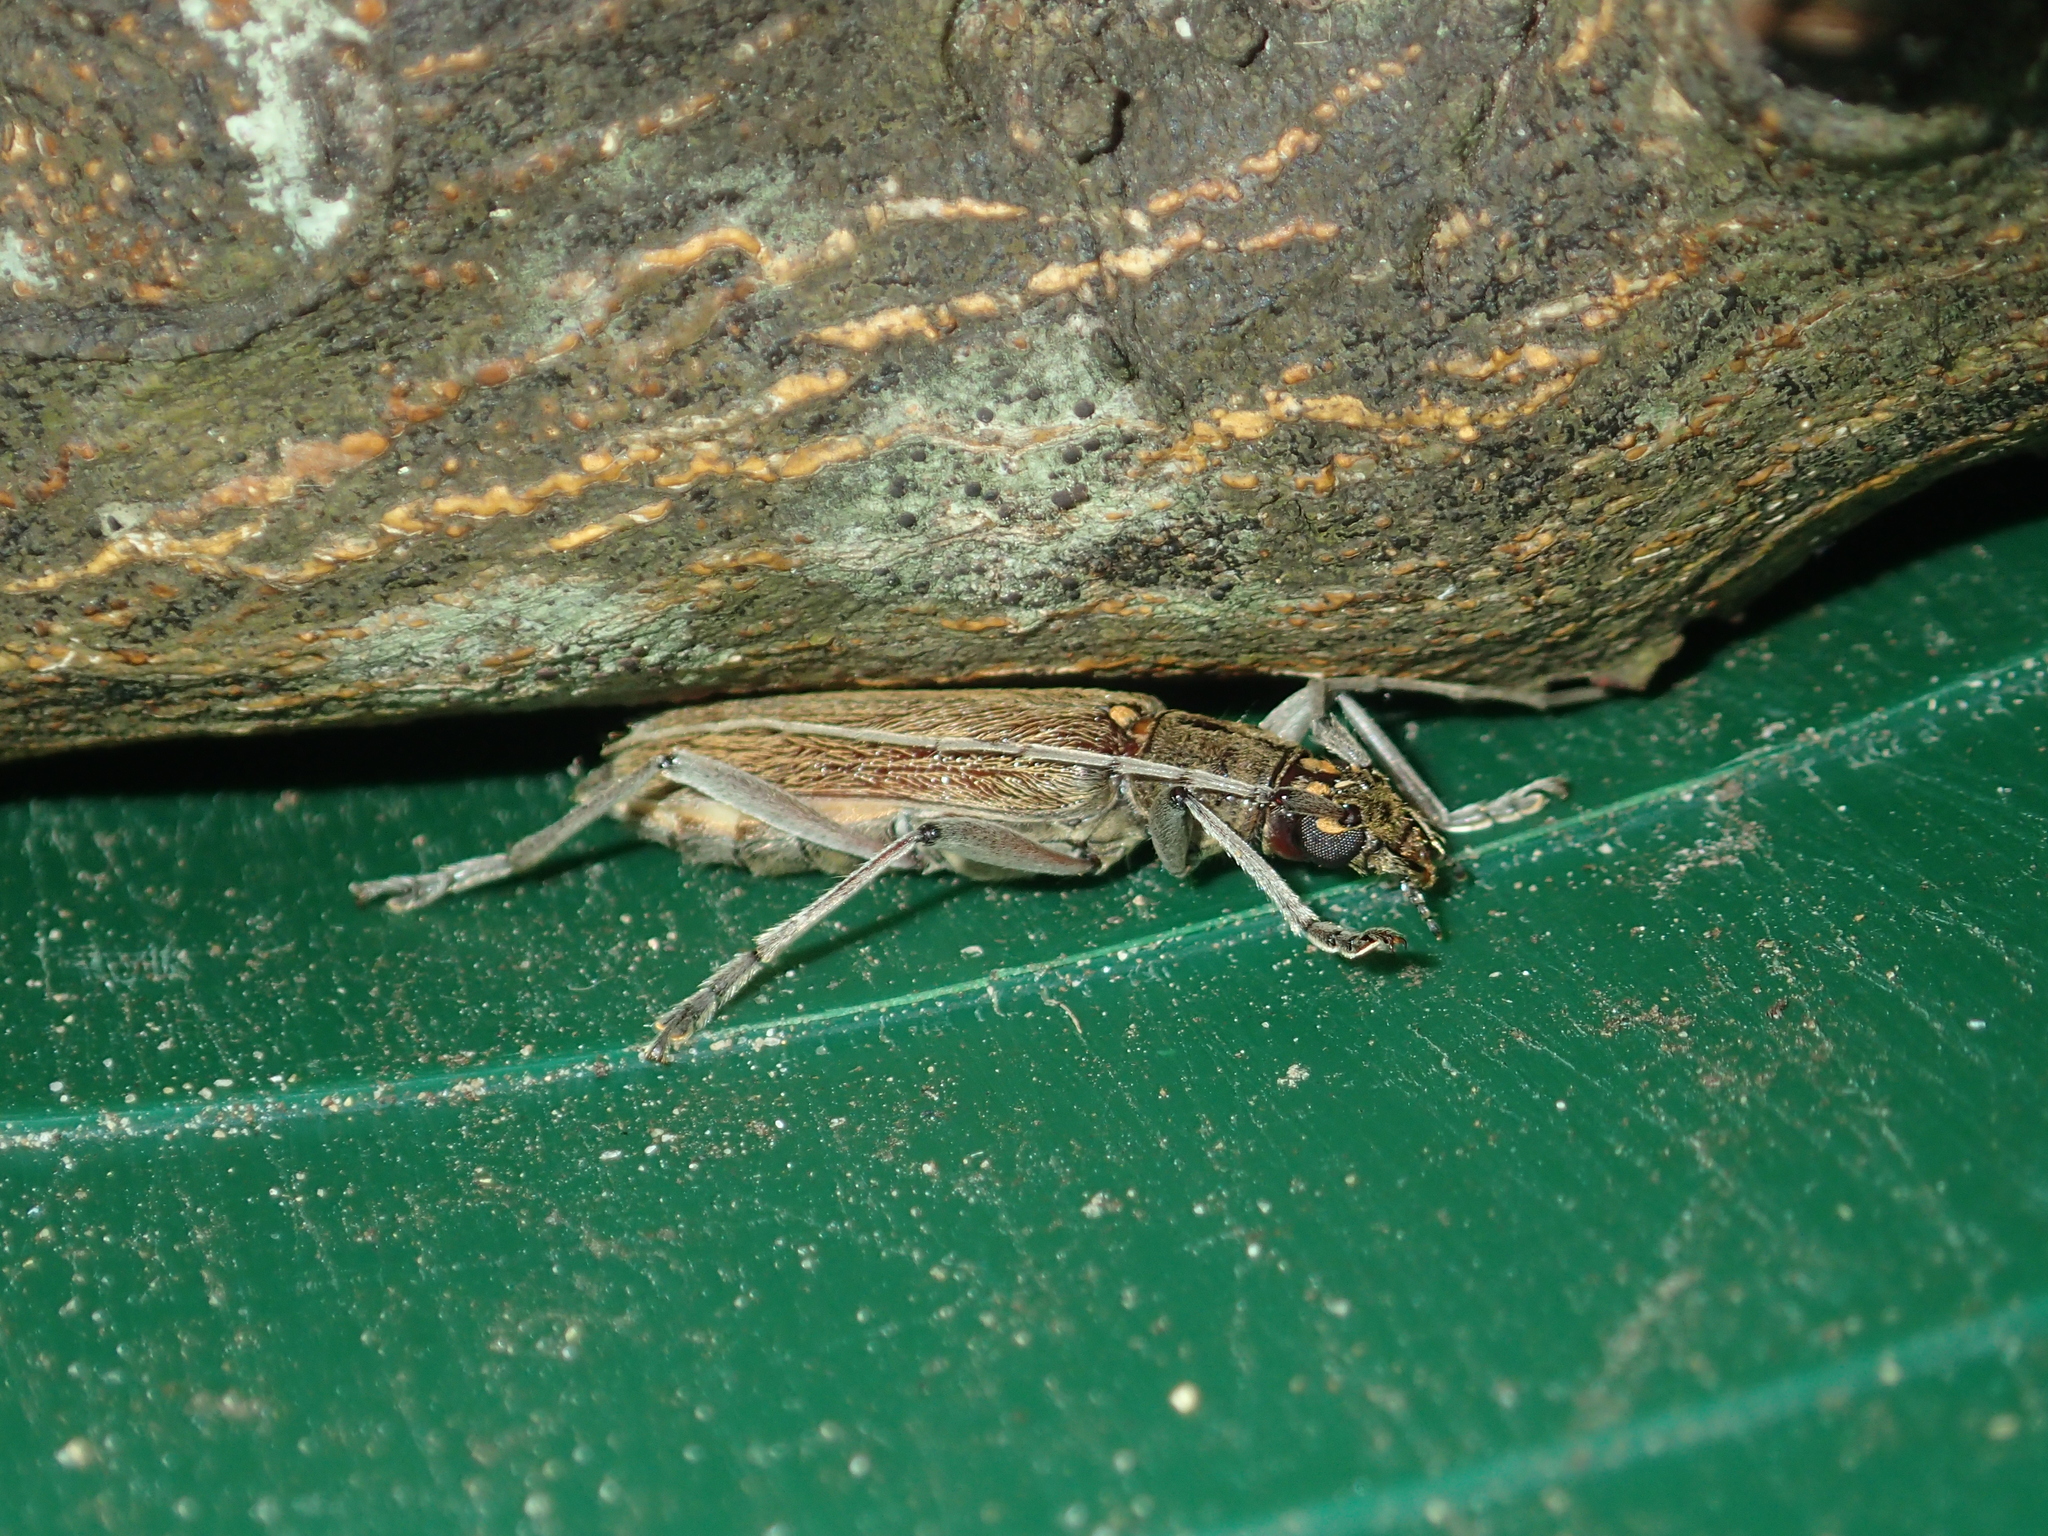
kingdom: Animalia
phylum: Arthropoda
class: Insecta
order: Coleoptera
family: Cerambycidae
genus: Oemona
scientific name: Oemona hirta
